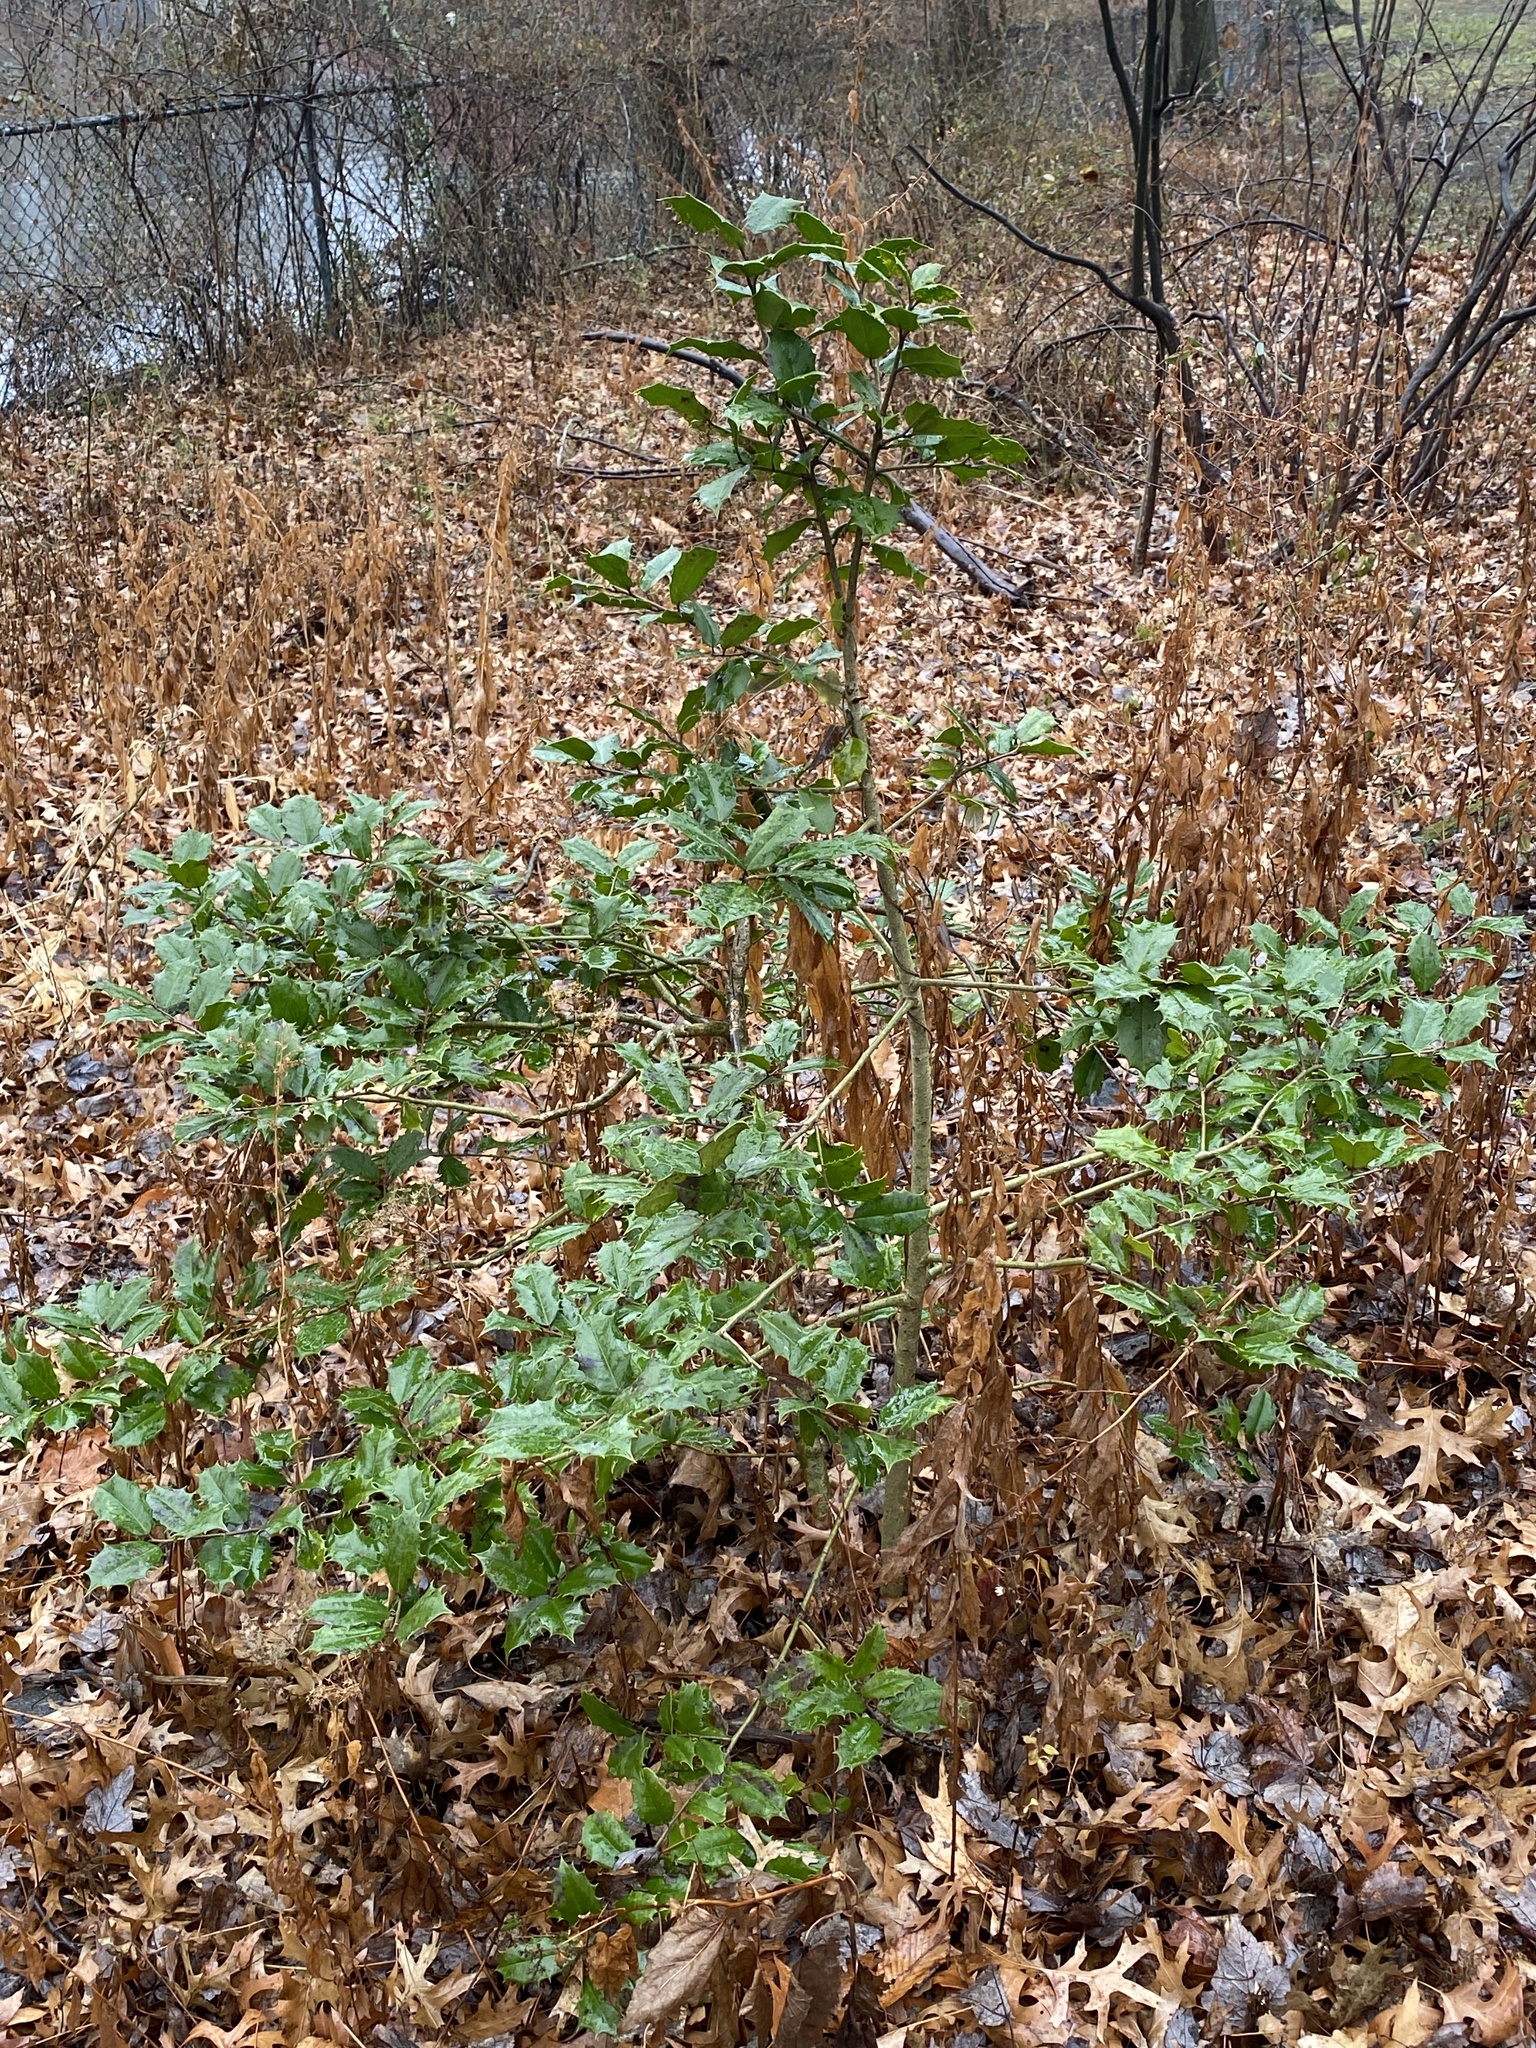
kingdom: Plantae
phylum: Tracheophyta
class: Magnoliopsida
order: Aquifoliales
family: Aquifoliaceae
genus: Ilex
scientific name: Ilex opaca
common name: American holly
